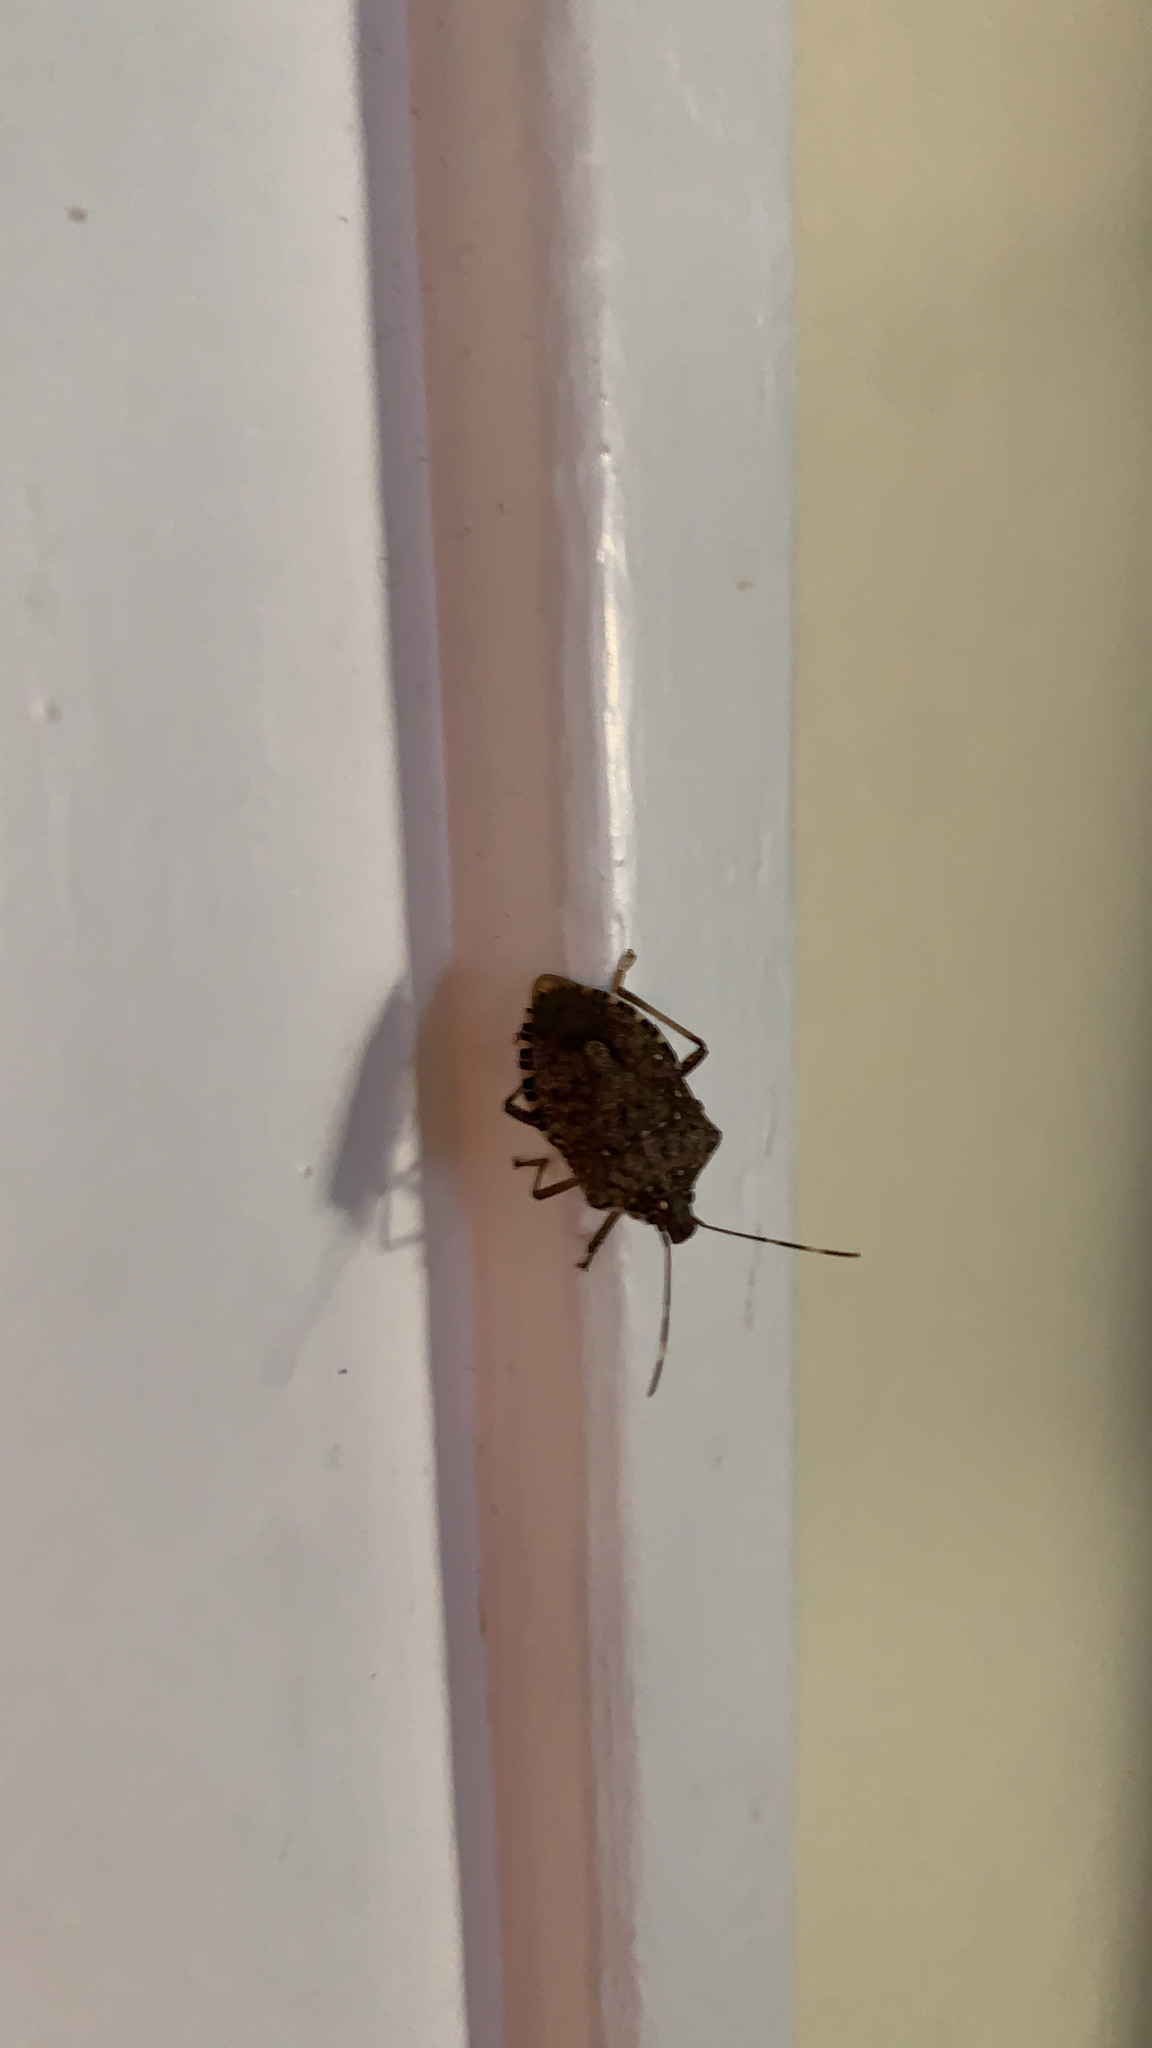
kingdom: Animalia
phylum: Arthropoda
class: Insecta
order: Hemiptera
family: Pentatomidae
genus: Halyomorpha
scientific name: Halyomorpha halys
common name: Brown marmorated stink bug
